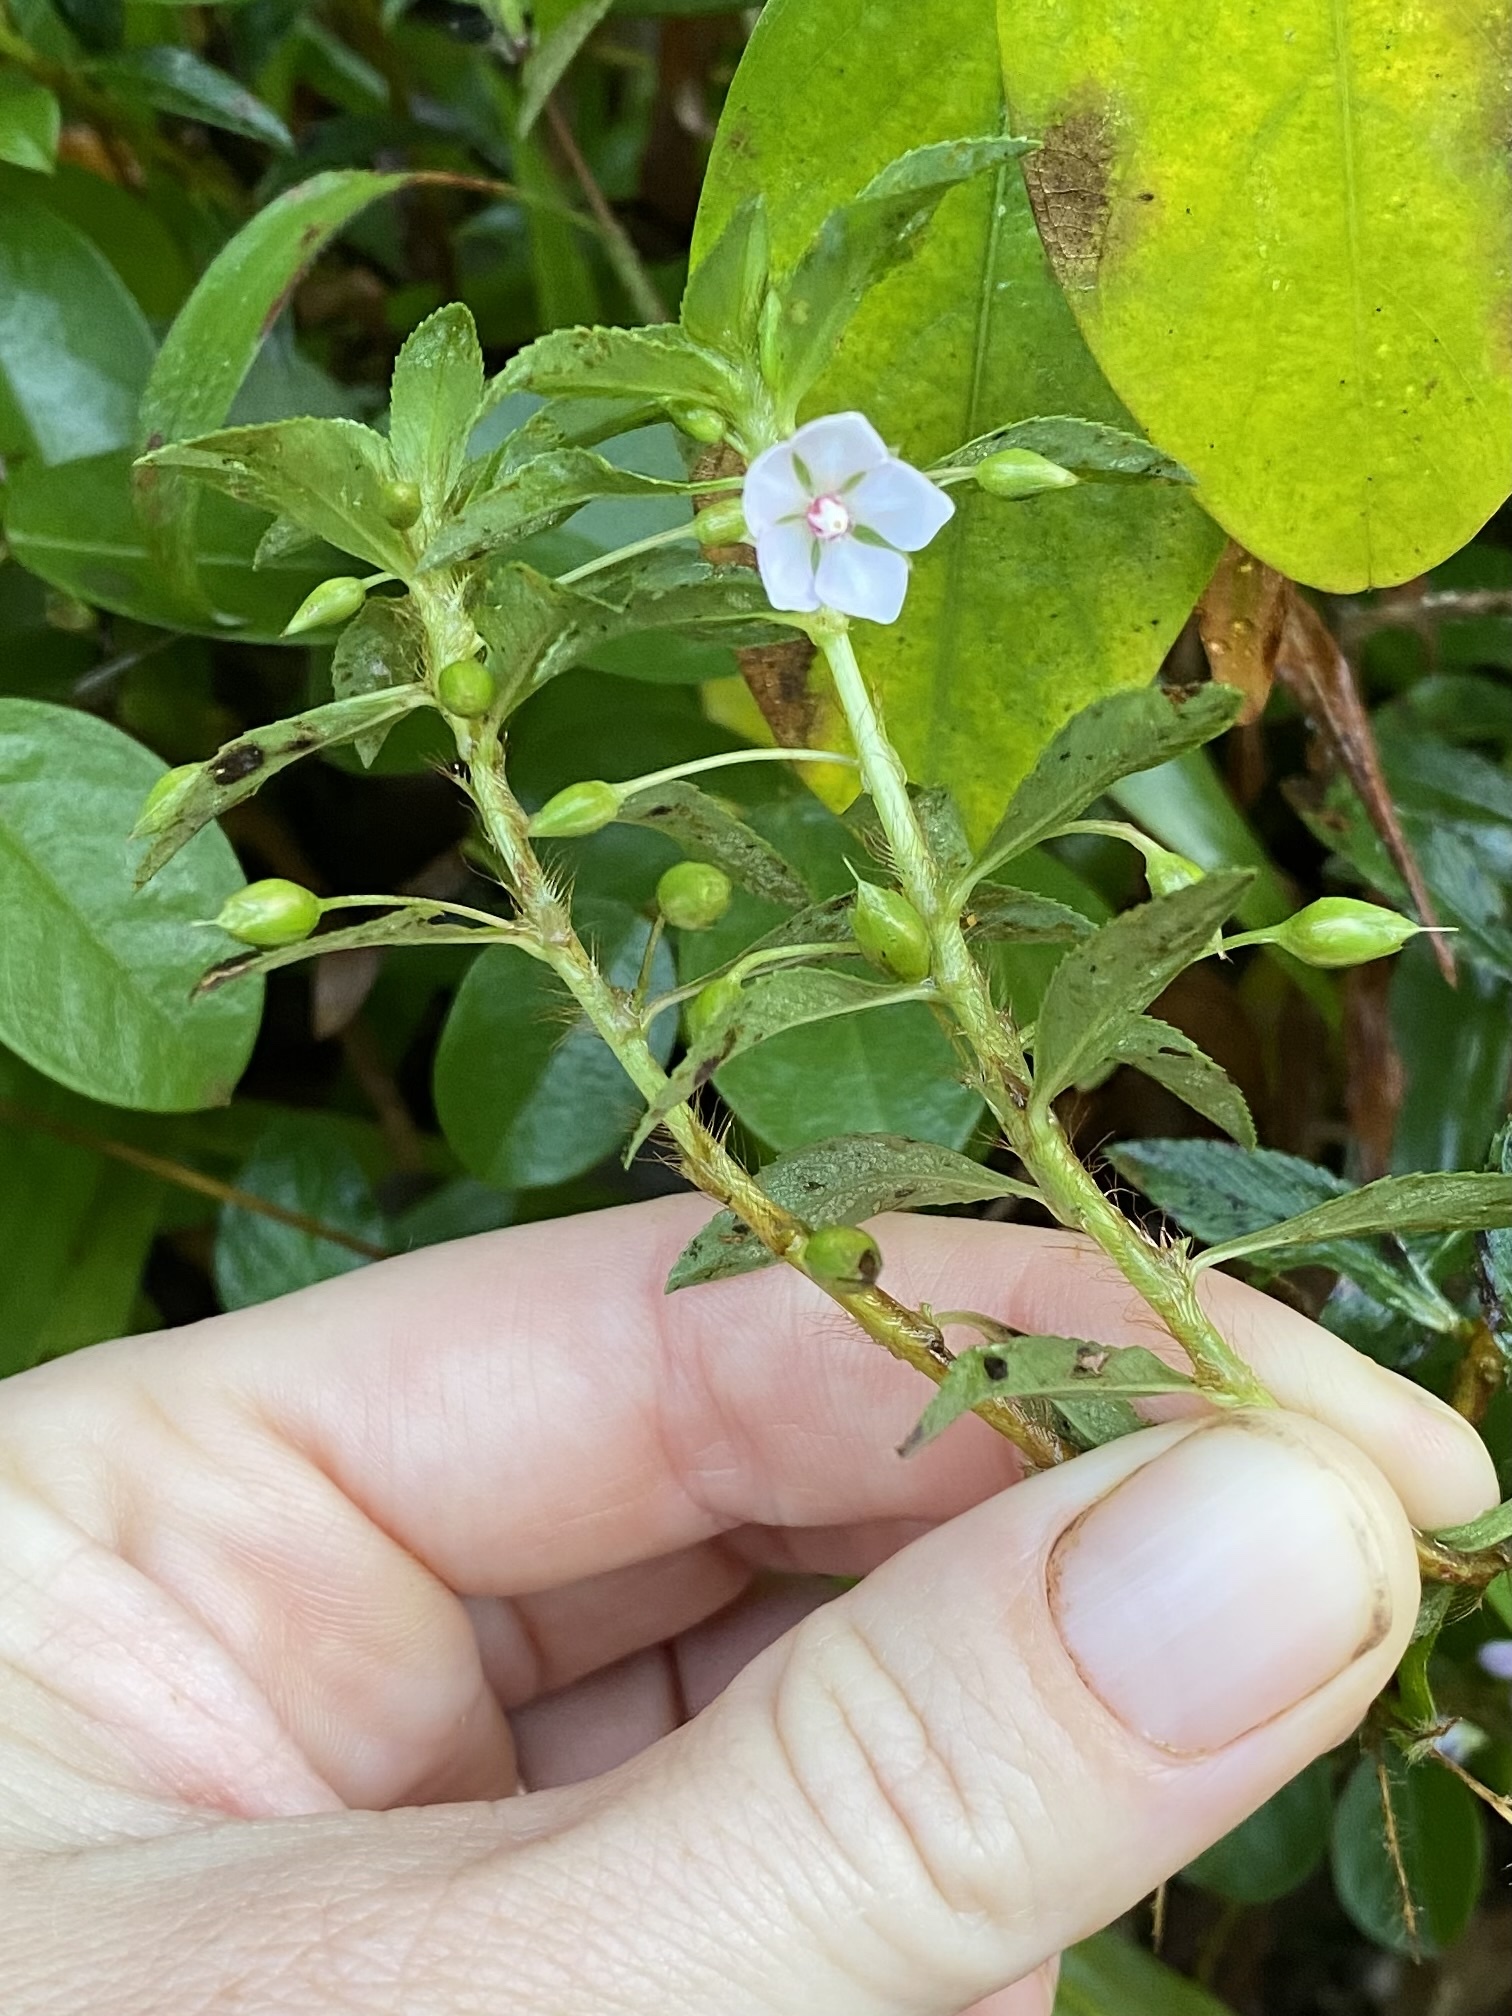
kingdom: Plantae
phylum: Tracheophyta
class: Magnoliopsida
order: Malpighiales
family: Ochnaceae
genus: Sauvagesia
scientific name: Sauvagesia erecta
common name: Creole tea
